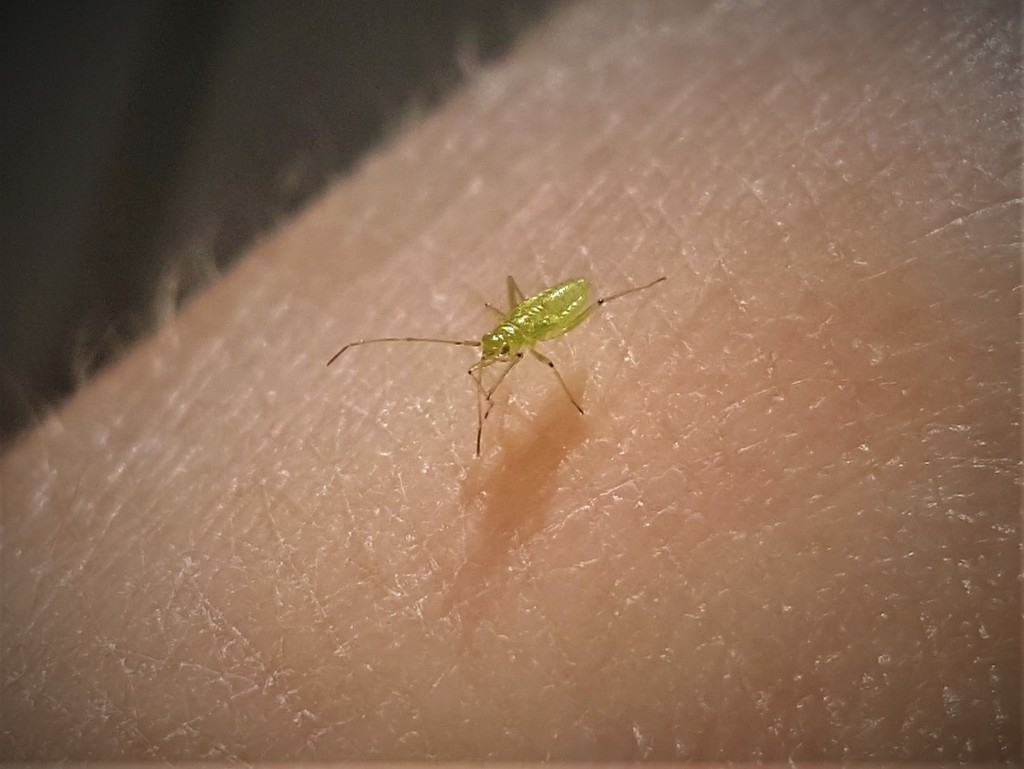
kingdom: Animalia
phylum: Arthropoda
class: Insecta
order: Hemiptera
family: Miridae
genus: Blepharidopterus
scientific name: Blepharidopterus angulatus
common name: Plant bug
